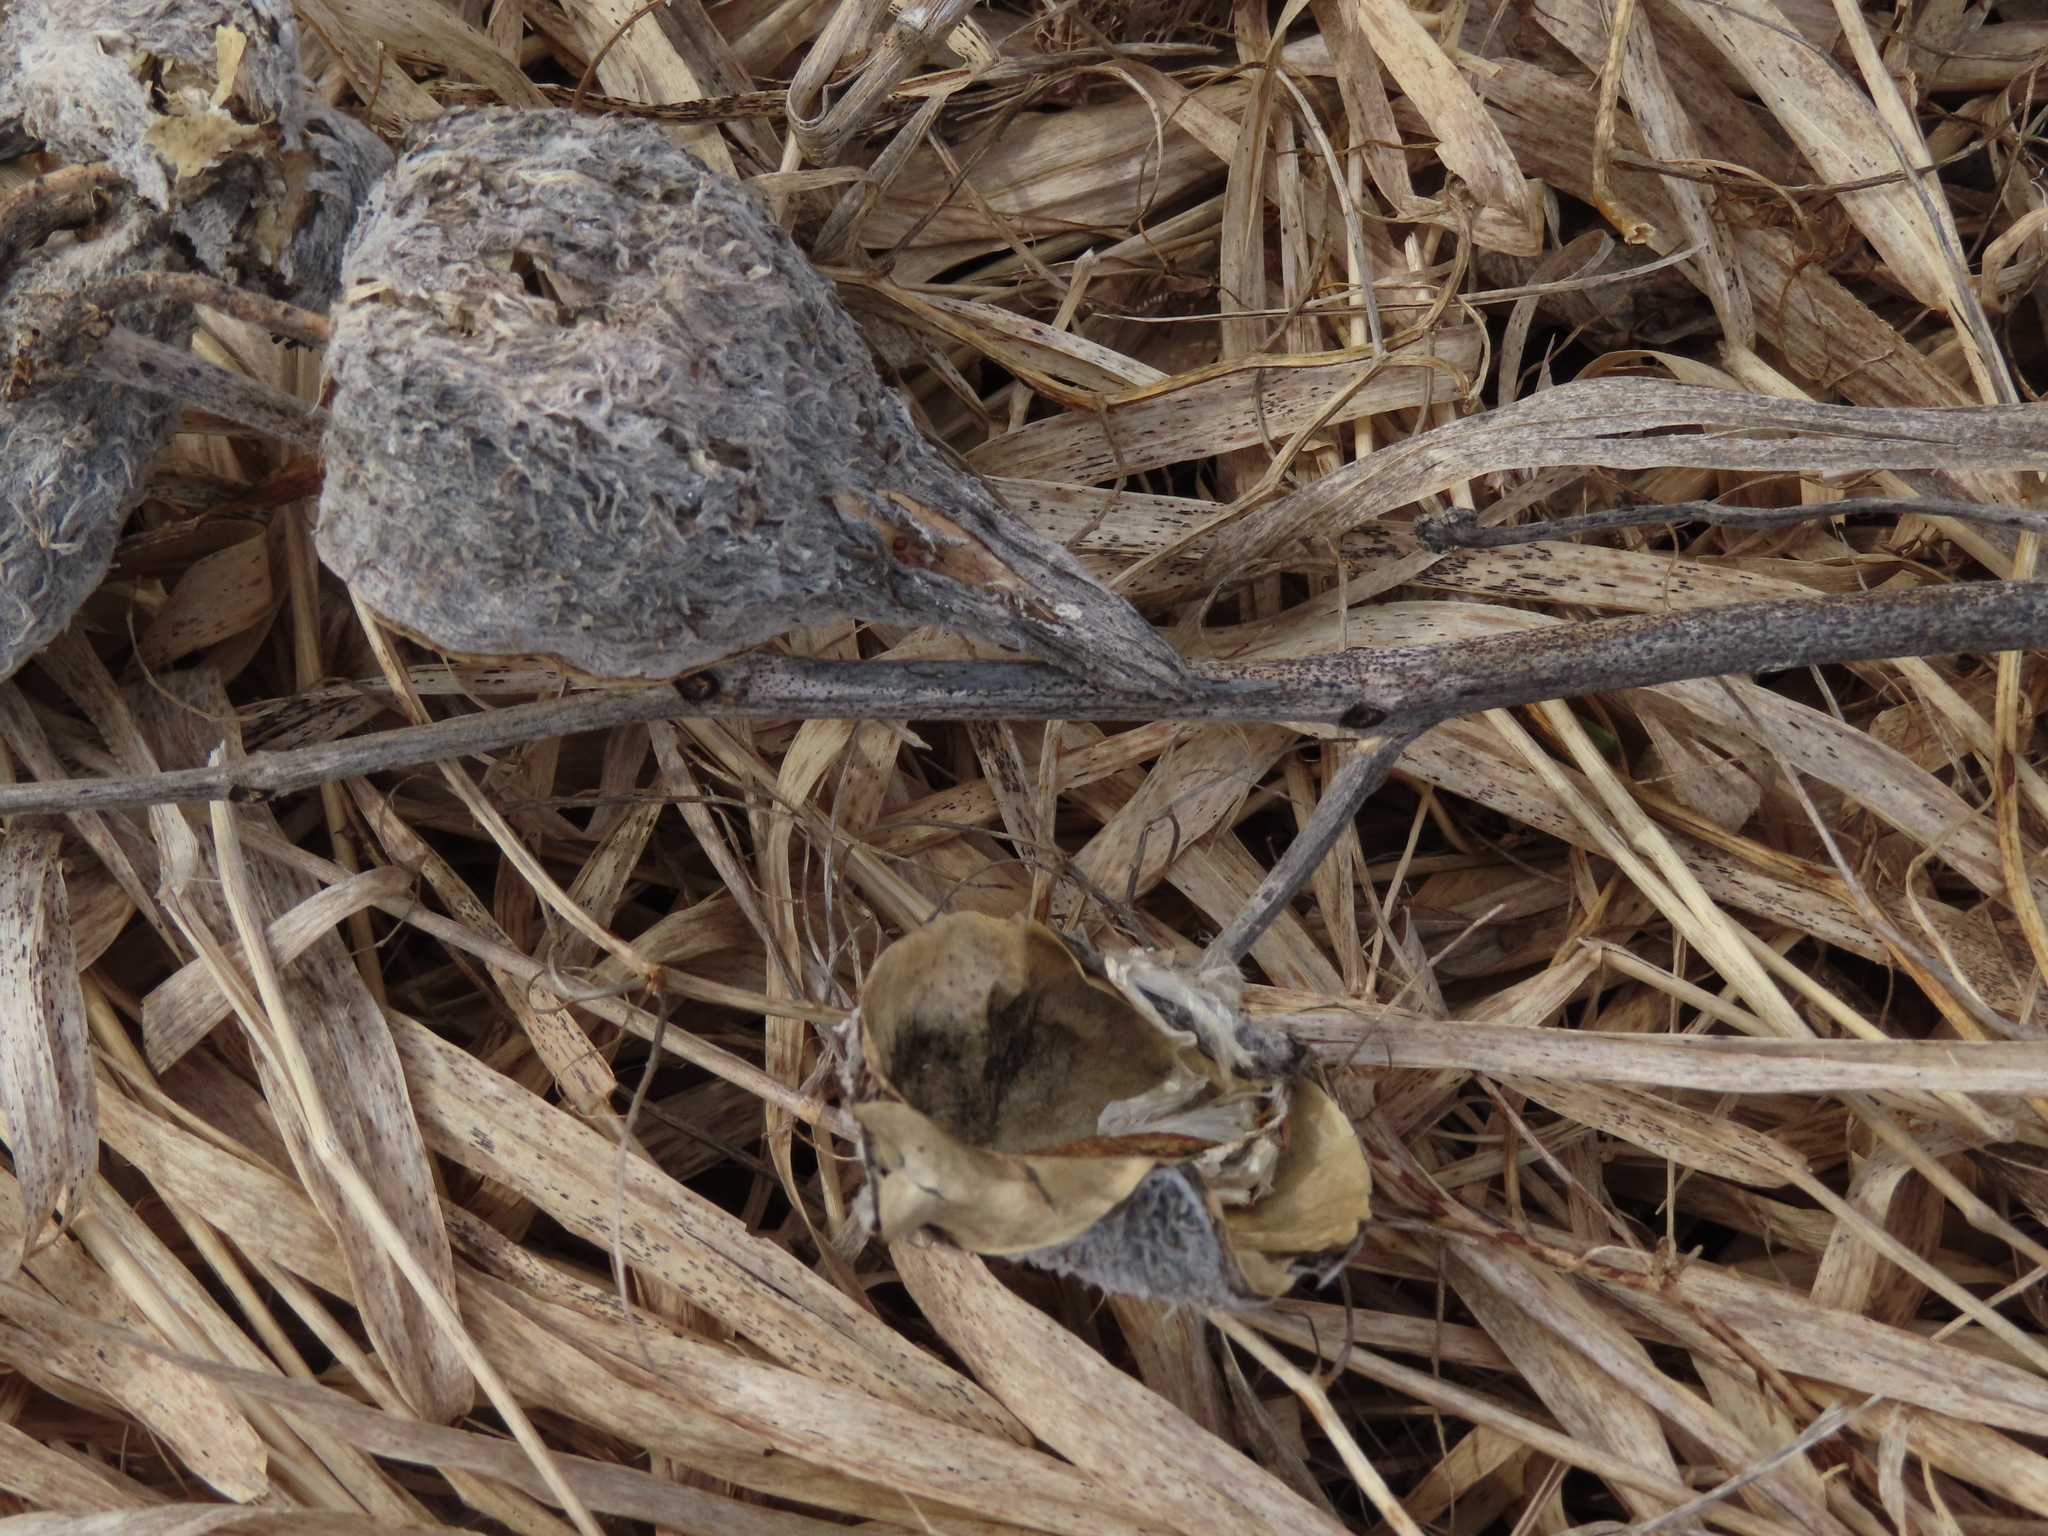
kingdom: Plantae
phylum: Tracheophyta
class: Magnoliopsida
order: Gentianales
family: Apocynaceae
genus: Asclepias
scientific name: Asclepias syriaca
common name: Common milkweed
